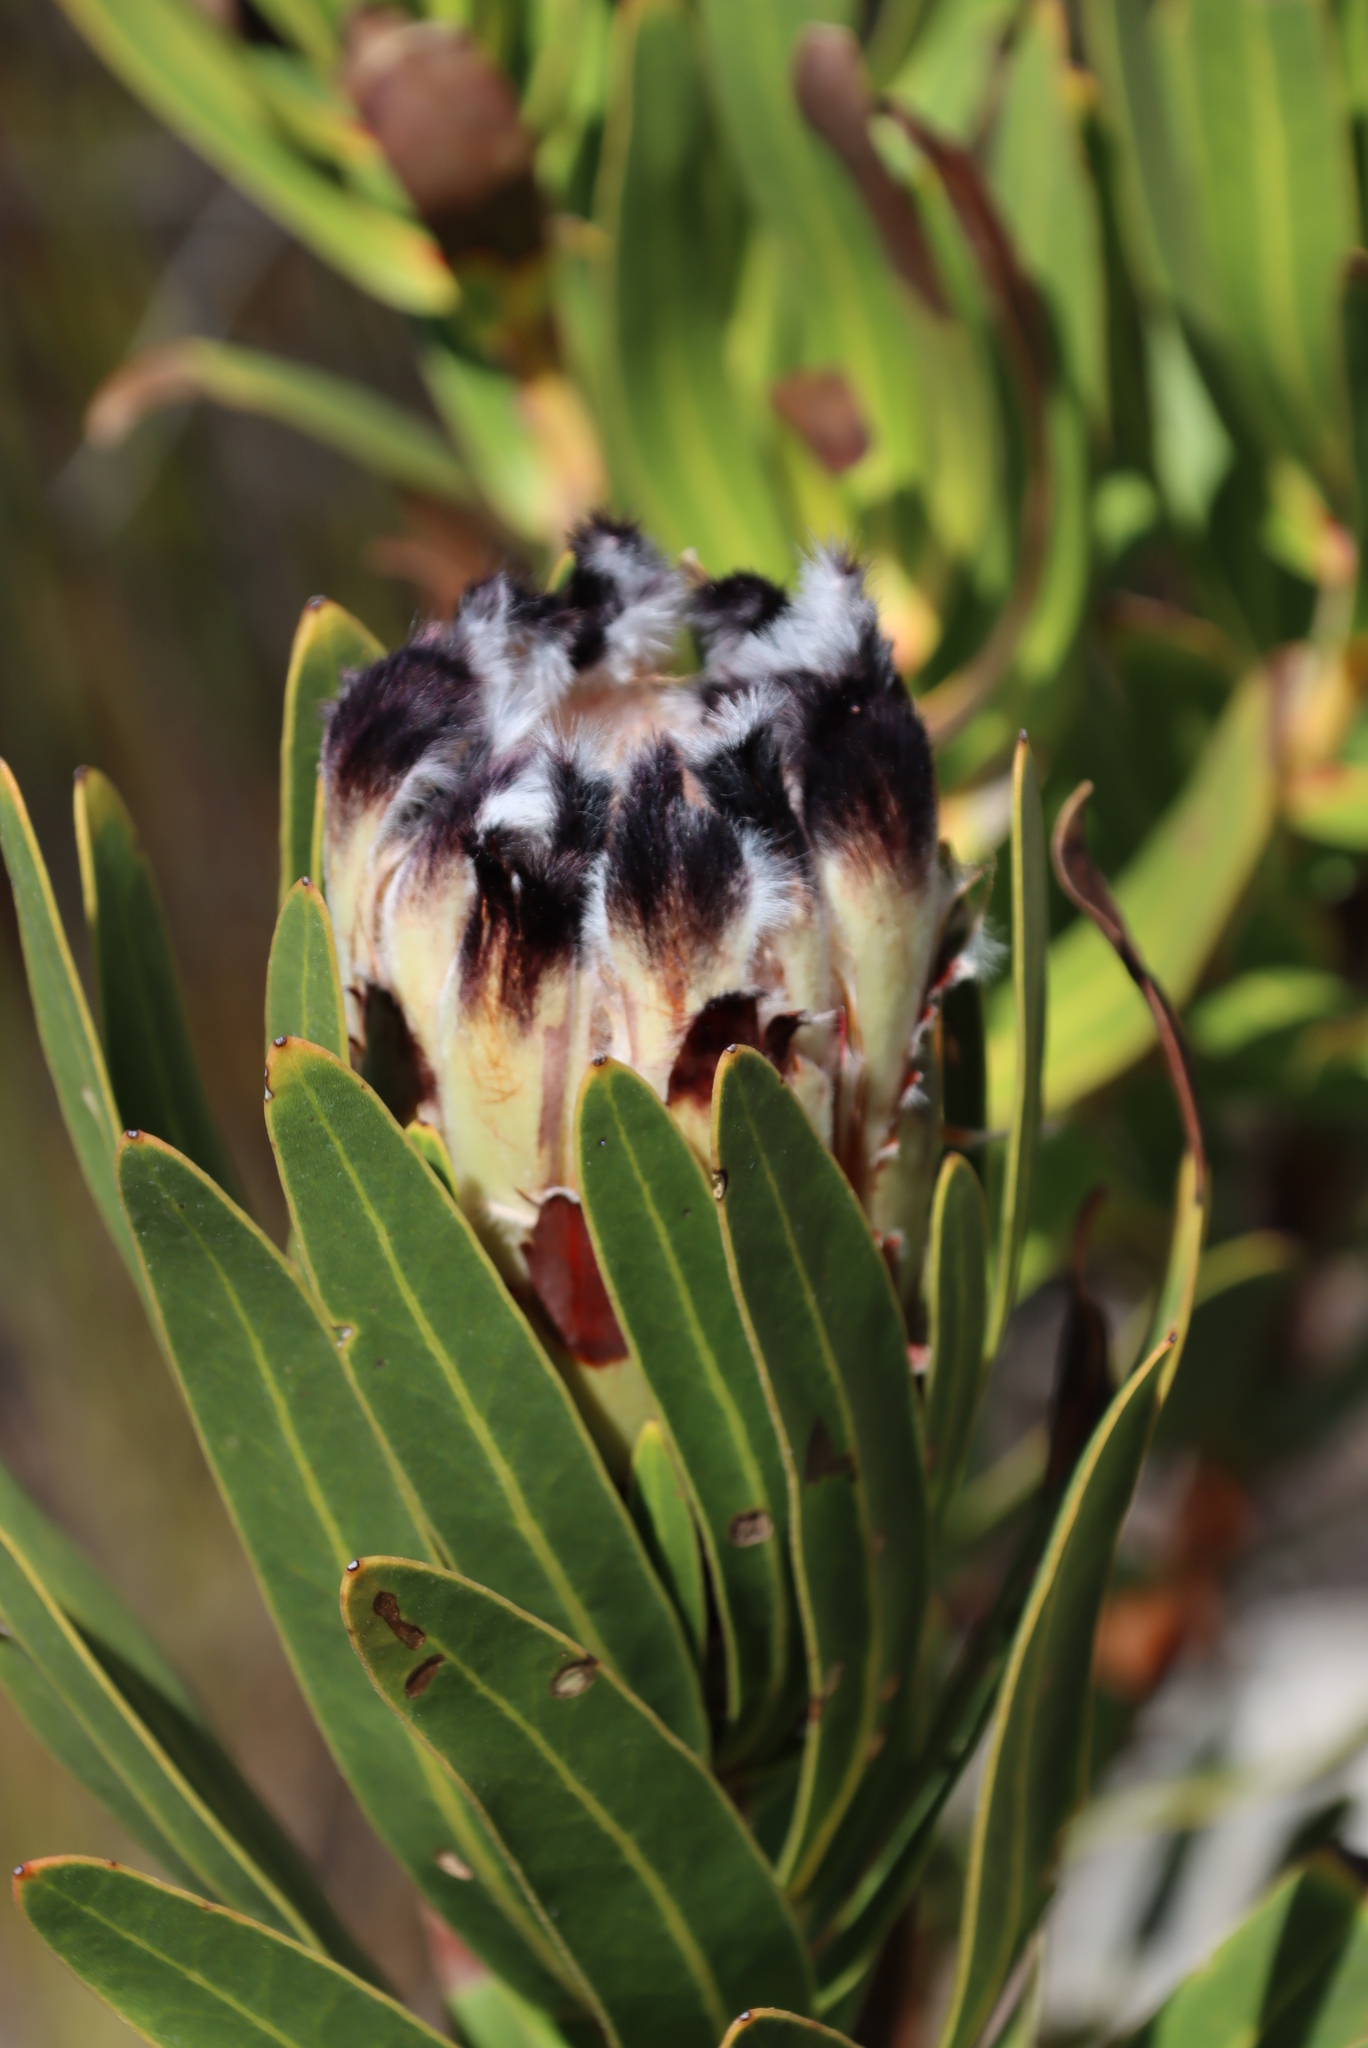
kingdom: Plantae
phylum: Tracheophyta
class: Magnoliopsida
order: Proteales
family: Proteaceae
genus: Protea
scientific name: Protea lepidocarpodendron
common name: Black-bearded protea
